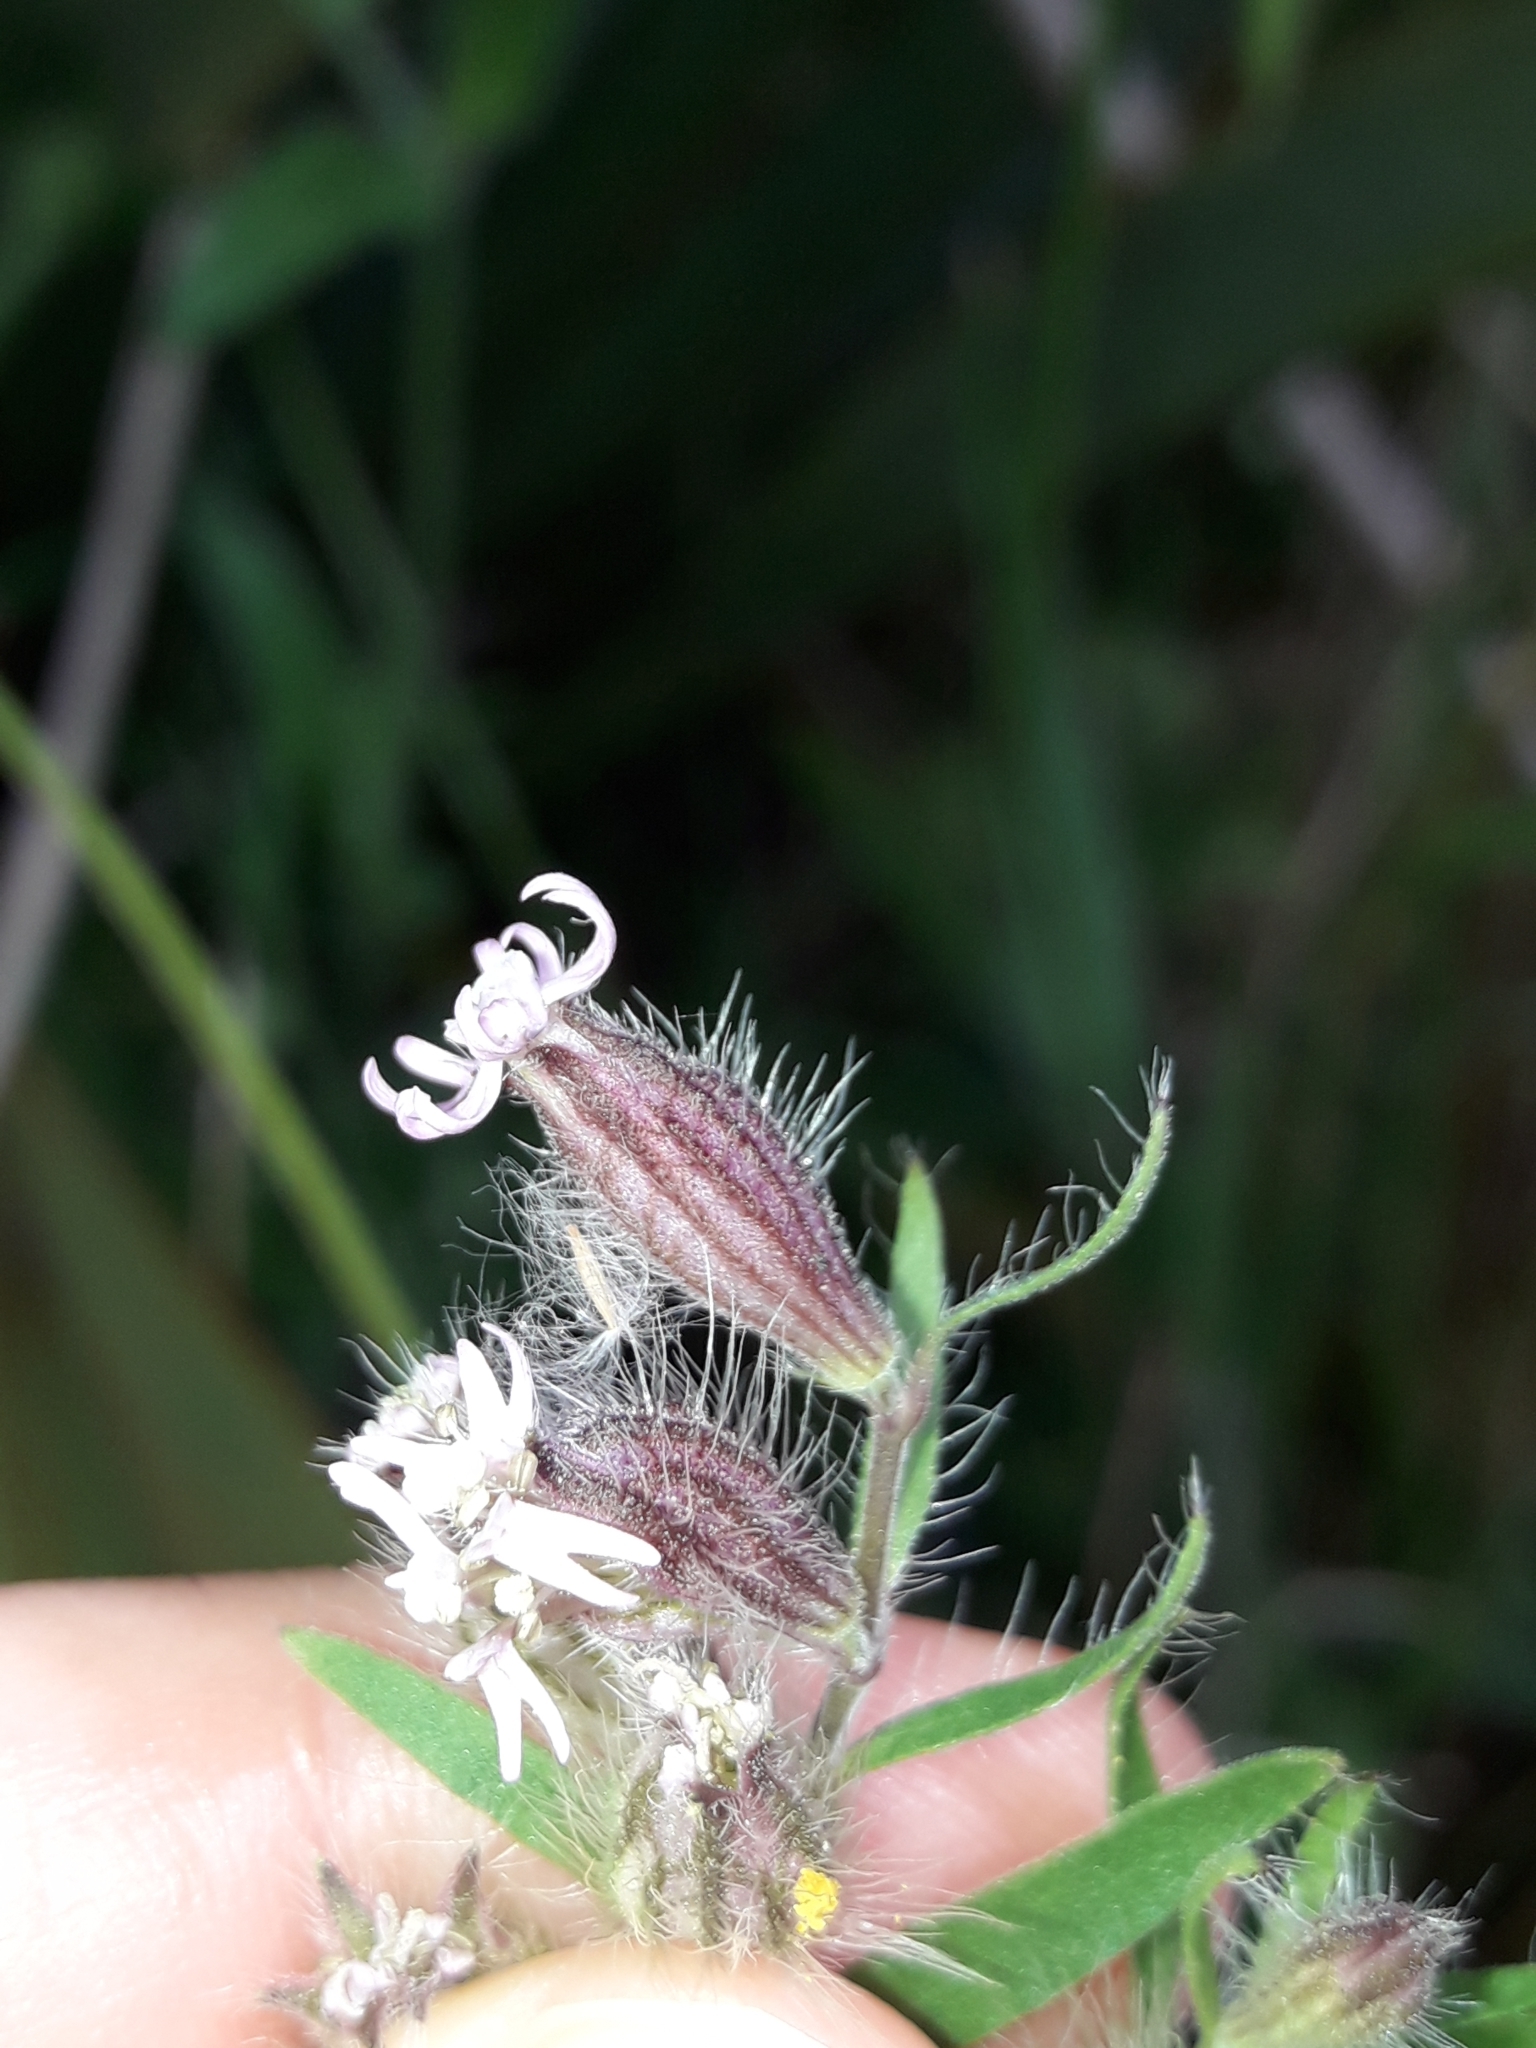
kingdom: Plantae
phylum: Tracheophyta
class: Magnoliopsida
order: Caryophyllales
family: Caryophyllaceae
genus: Silene
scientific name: Silene disticha
